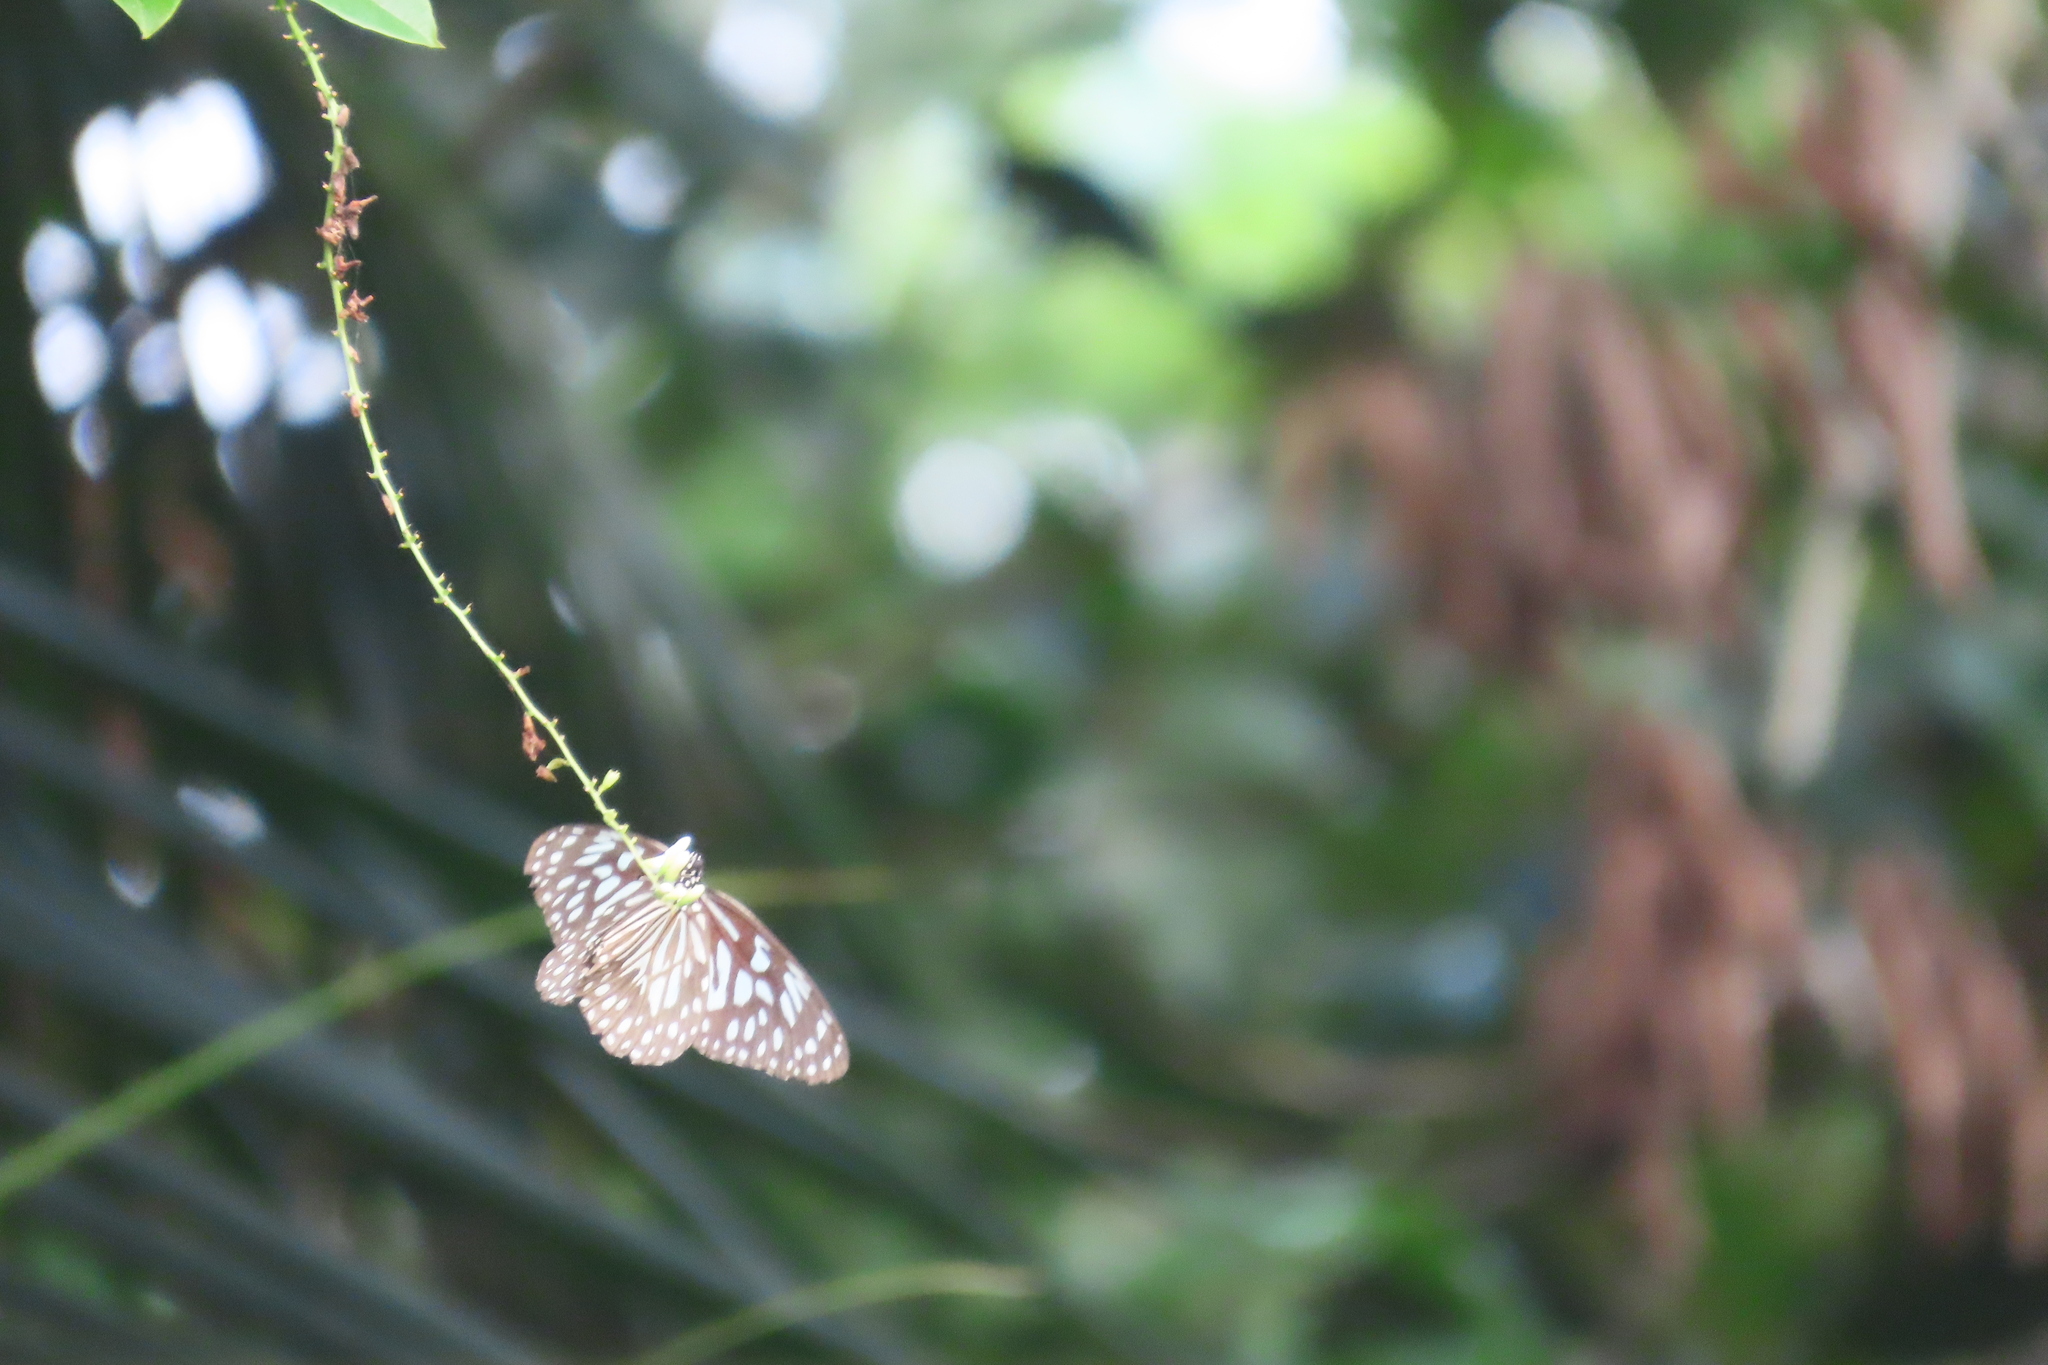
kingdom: Animalia
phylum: Arthropoda
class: Insecta
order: Lepidoptera
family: Nymphalidae
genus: Tirumala
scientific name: Tirumala septentrionis
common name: Dark blue tiger butterfly
